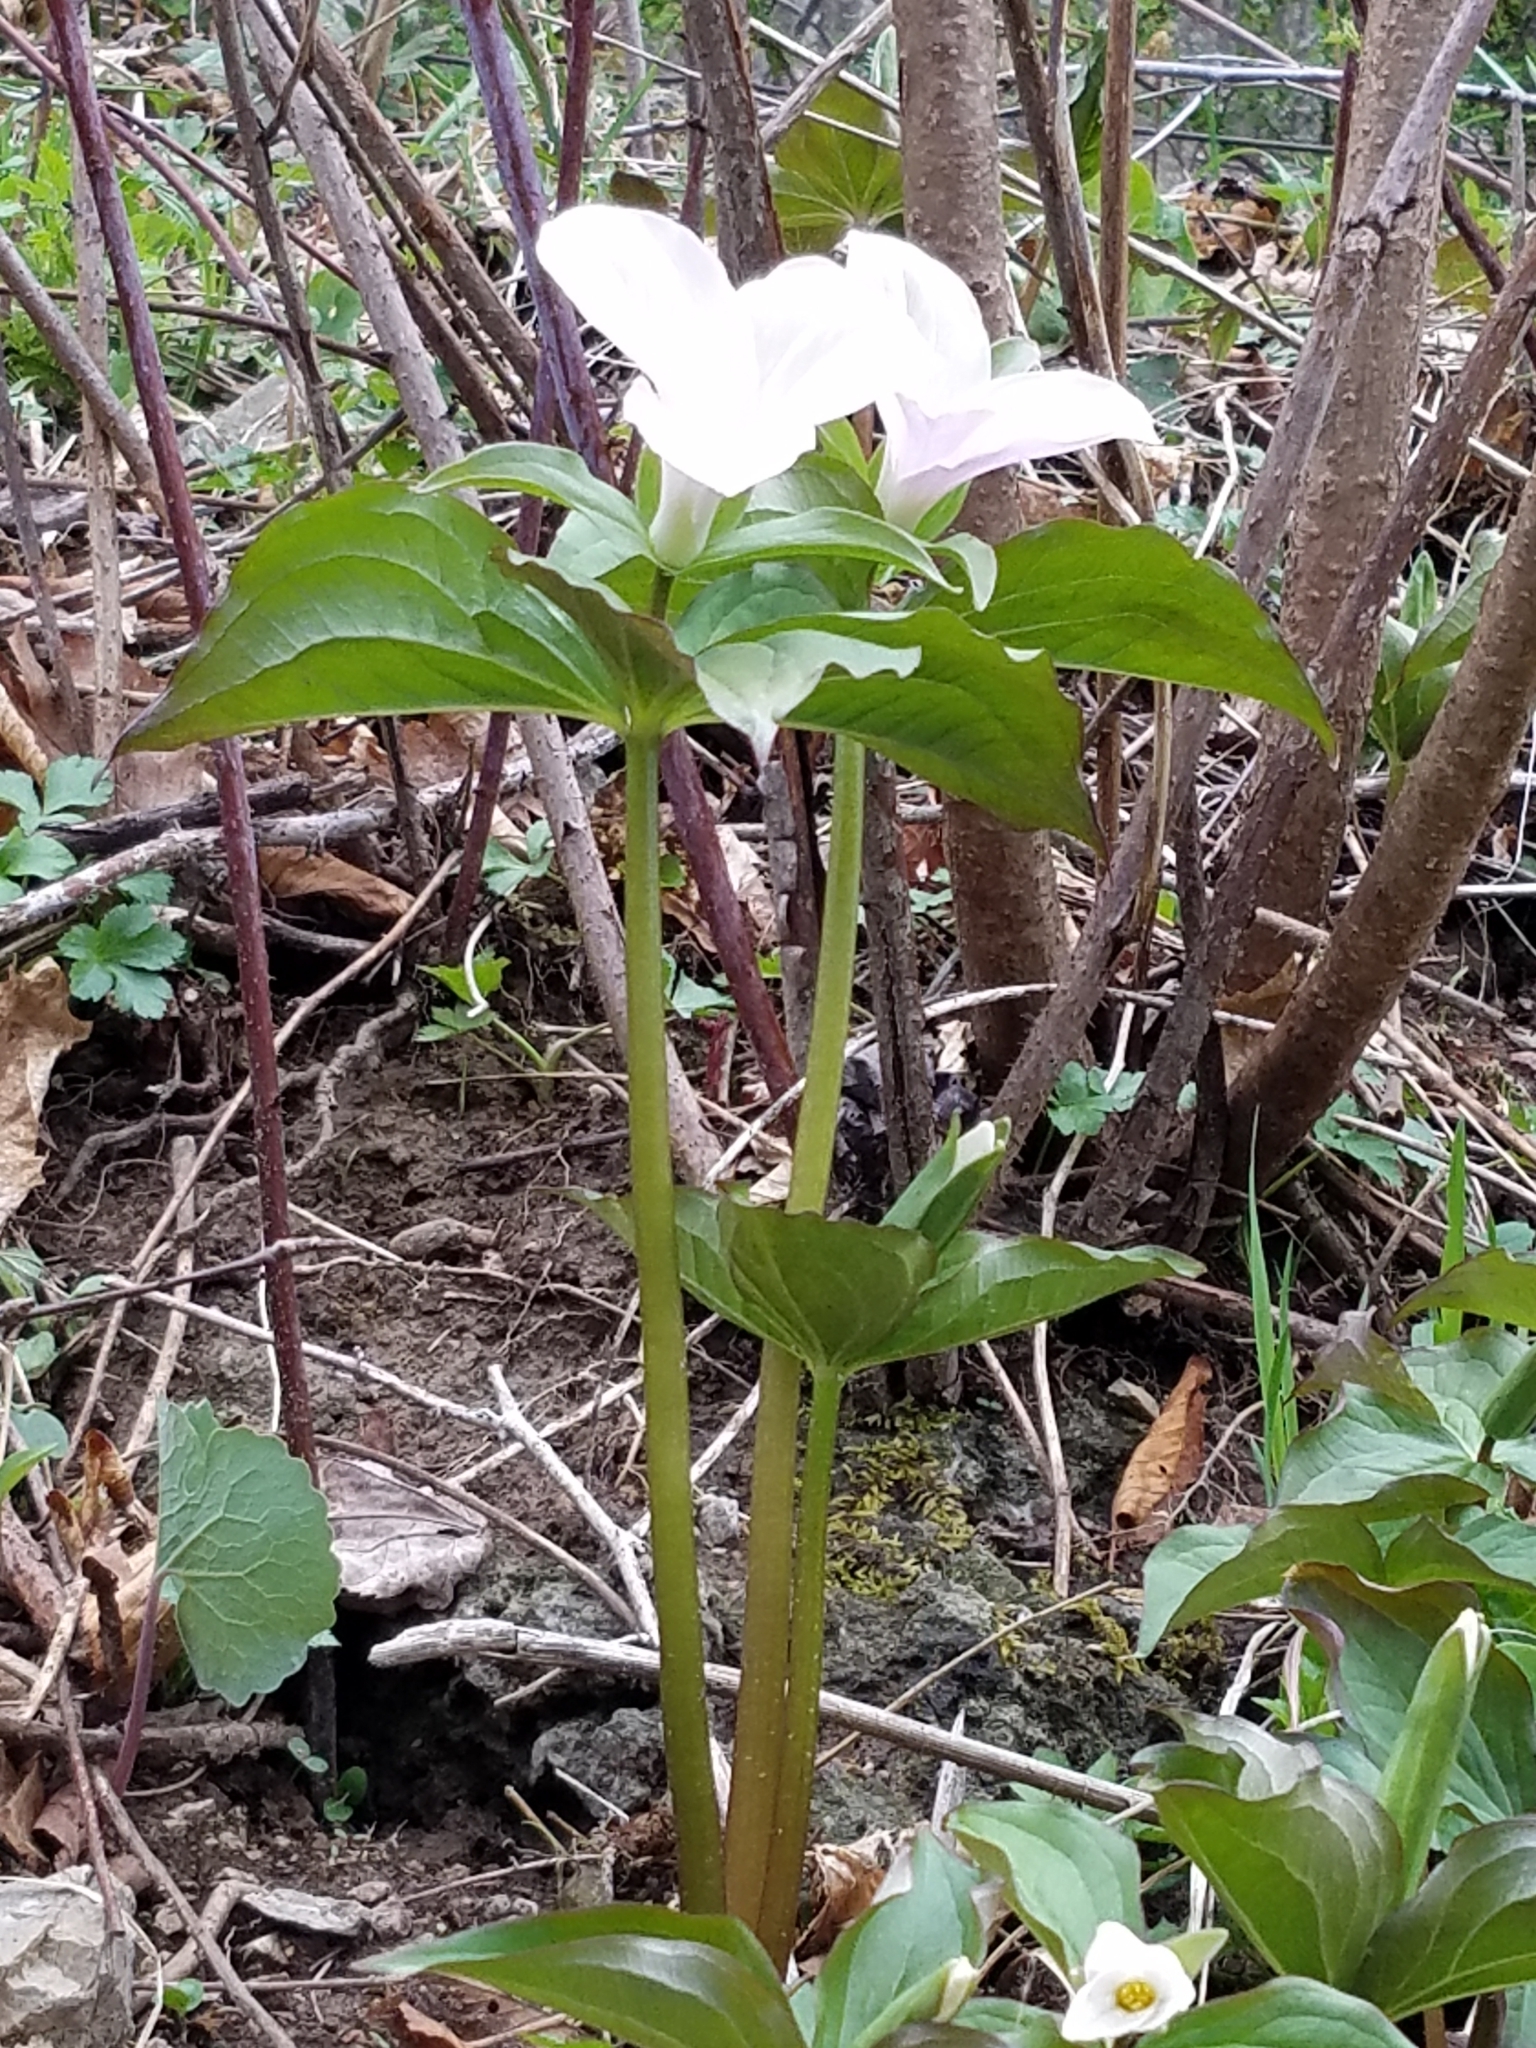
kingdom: Plantae
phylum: Tracheophyta
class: Liliopsida
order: Liliales
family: Melanthiaceae
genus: Trillium
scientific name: Trillium grandiflorum
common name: Great white trillium
